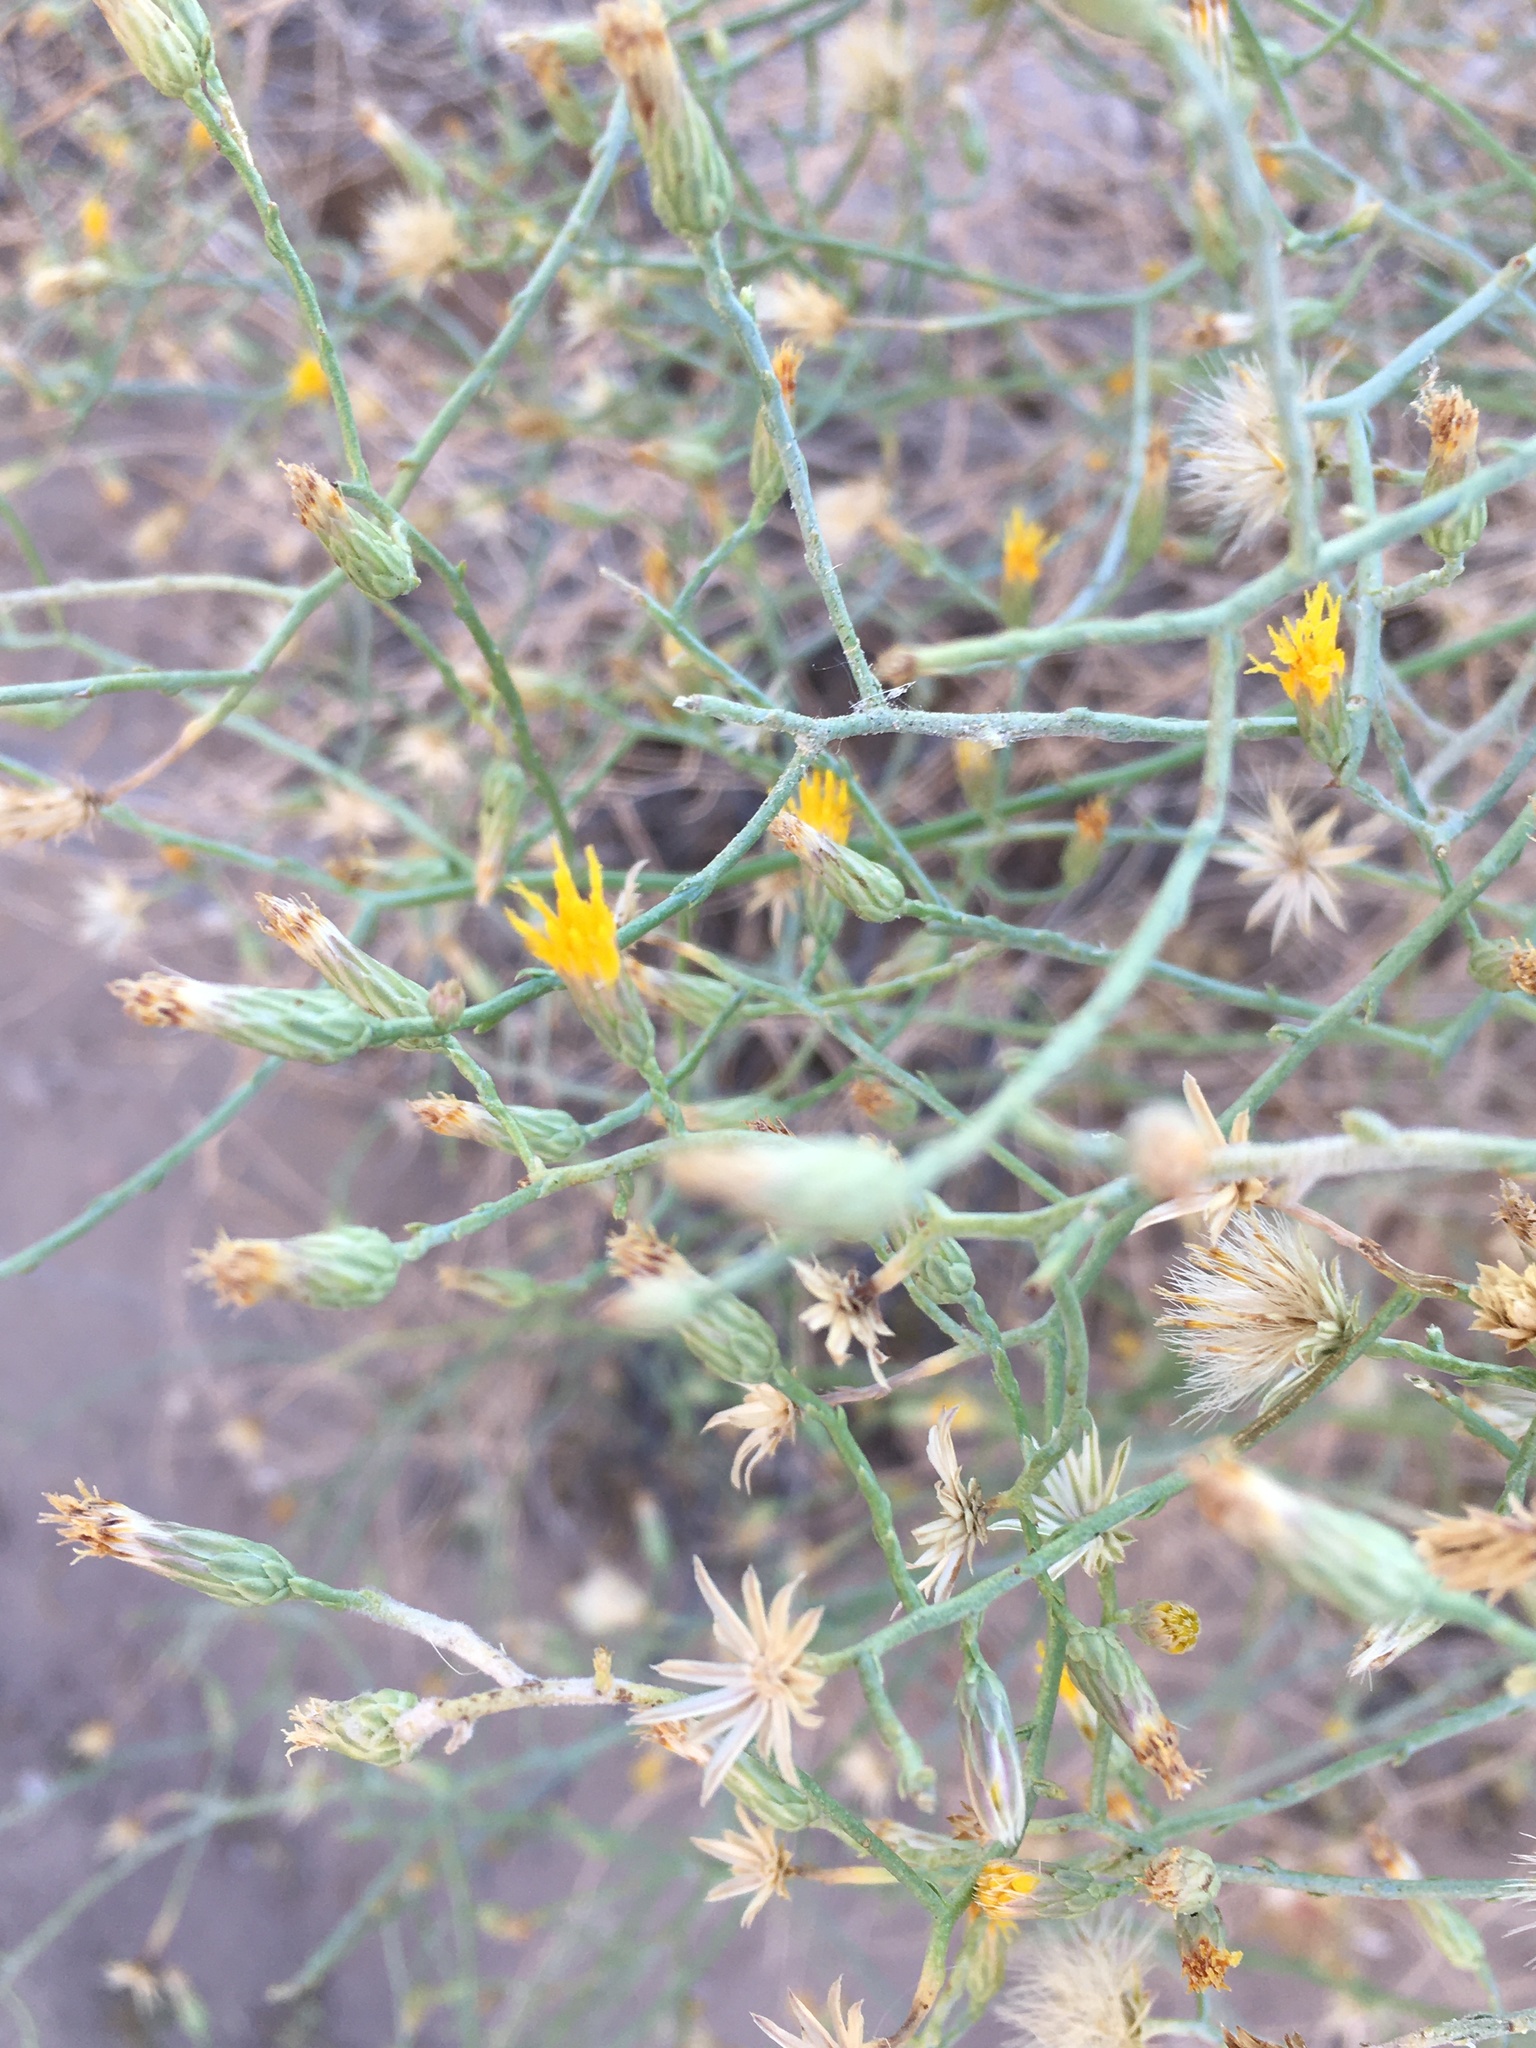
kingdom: Plantae
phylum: Tracheophyta
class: Magnoliopsida
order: Asterales
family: Asteraceae
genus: Leucosyris
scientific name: Leucosyris carnosa
